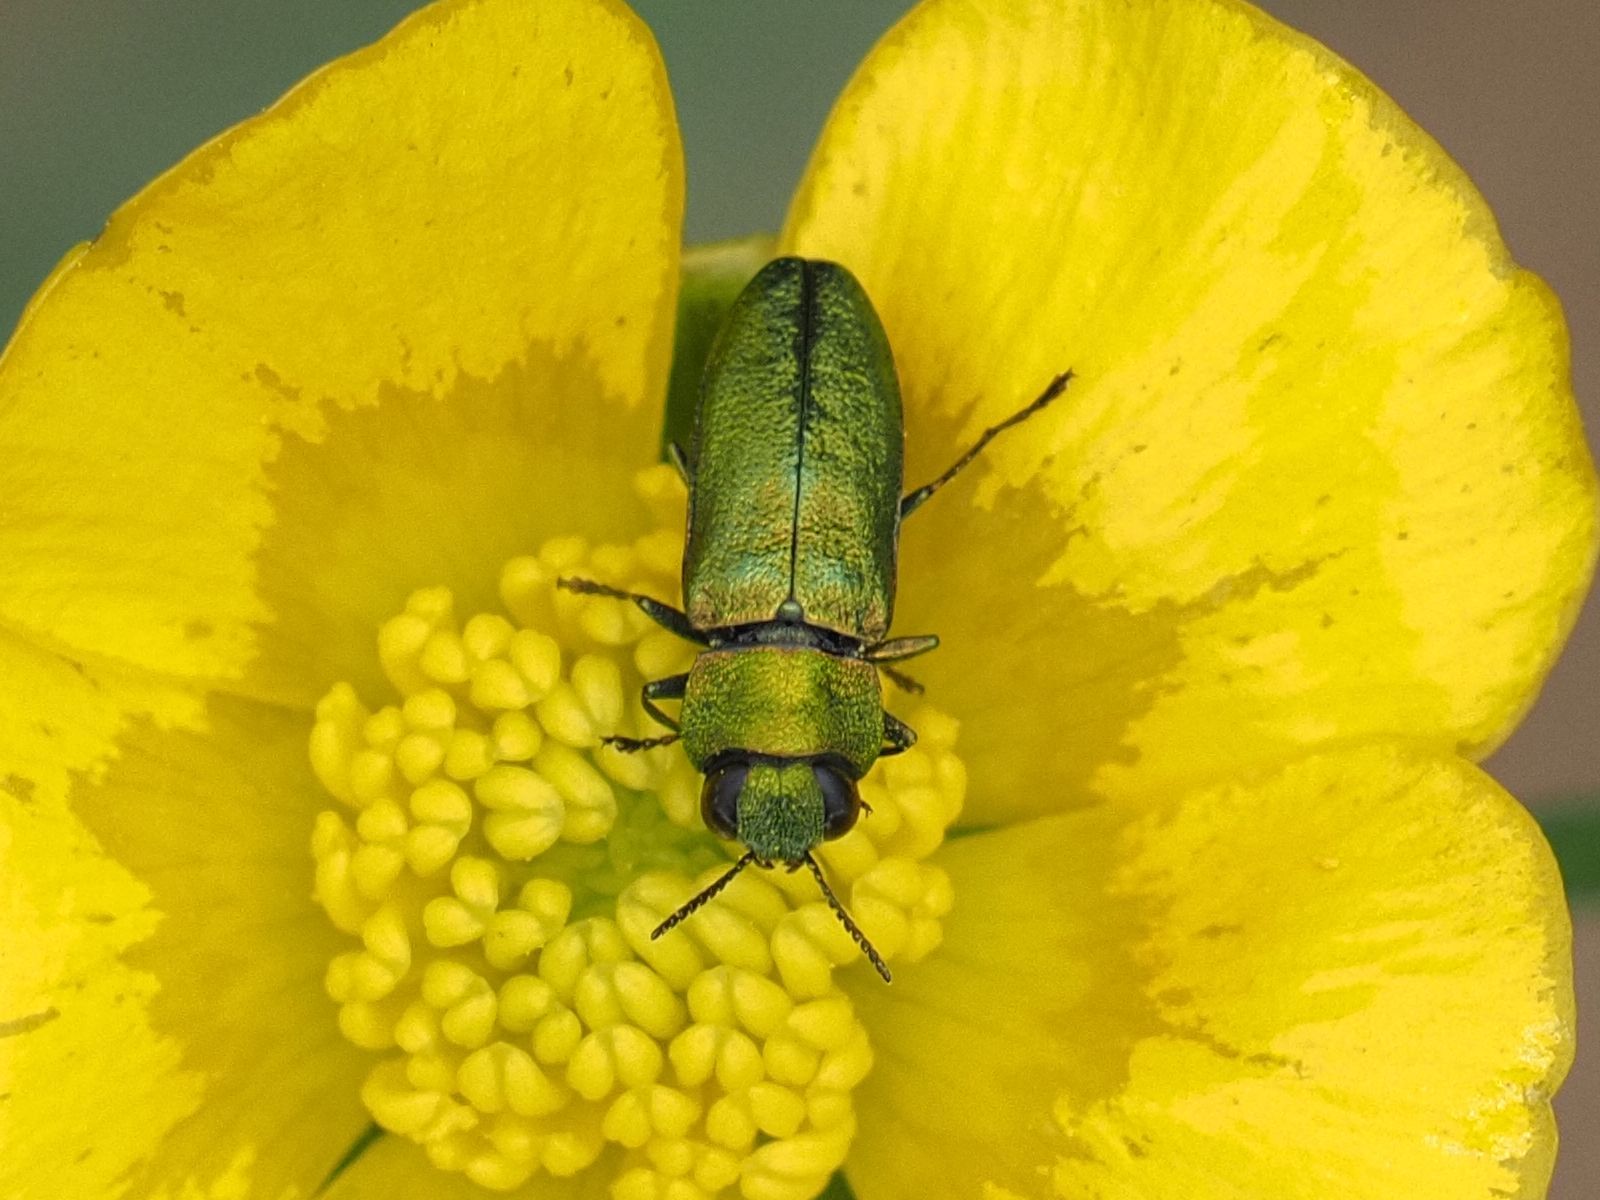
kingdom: Animalia
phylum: Arthropoda
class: Insecta
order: Coleoptera
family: Buprestidae
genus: Anthaxia
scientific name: Anthaxia nitidula
